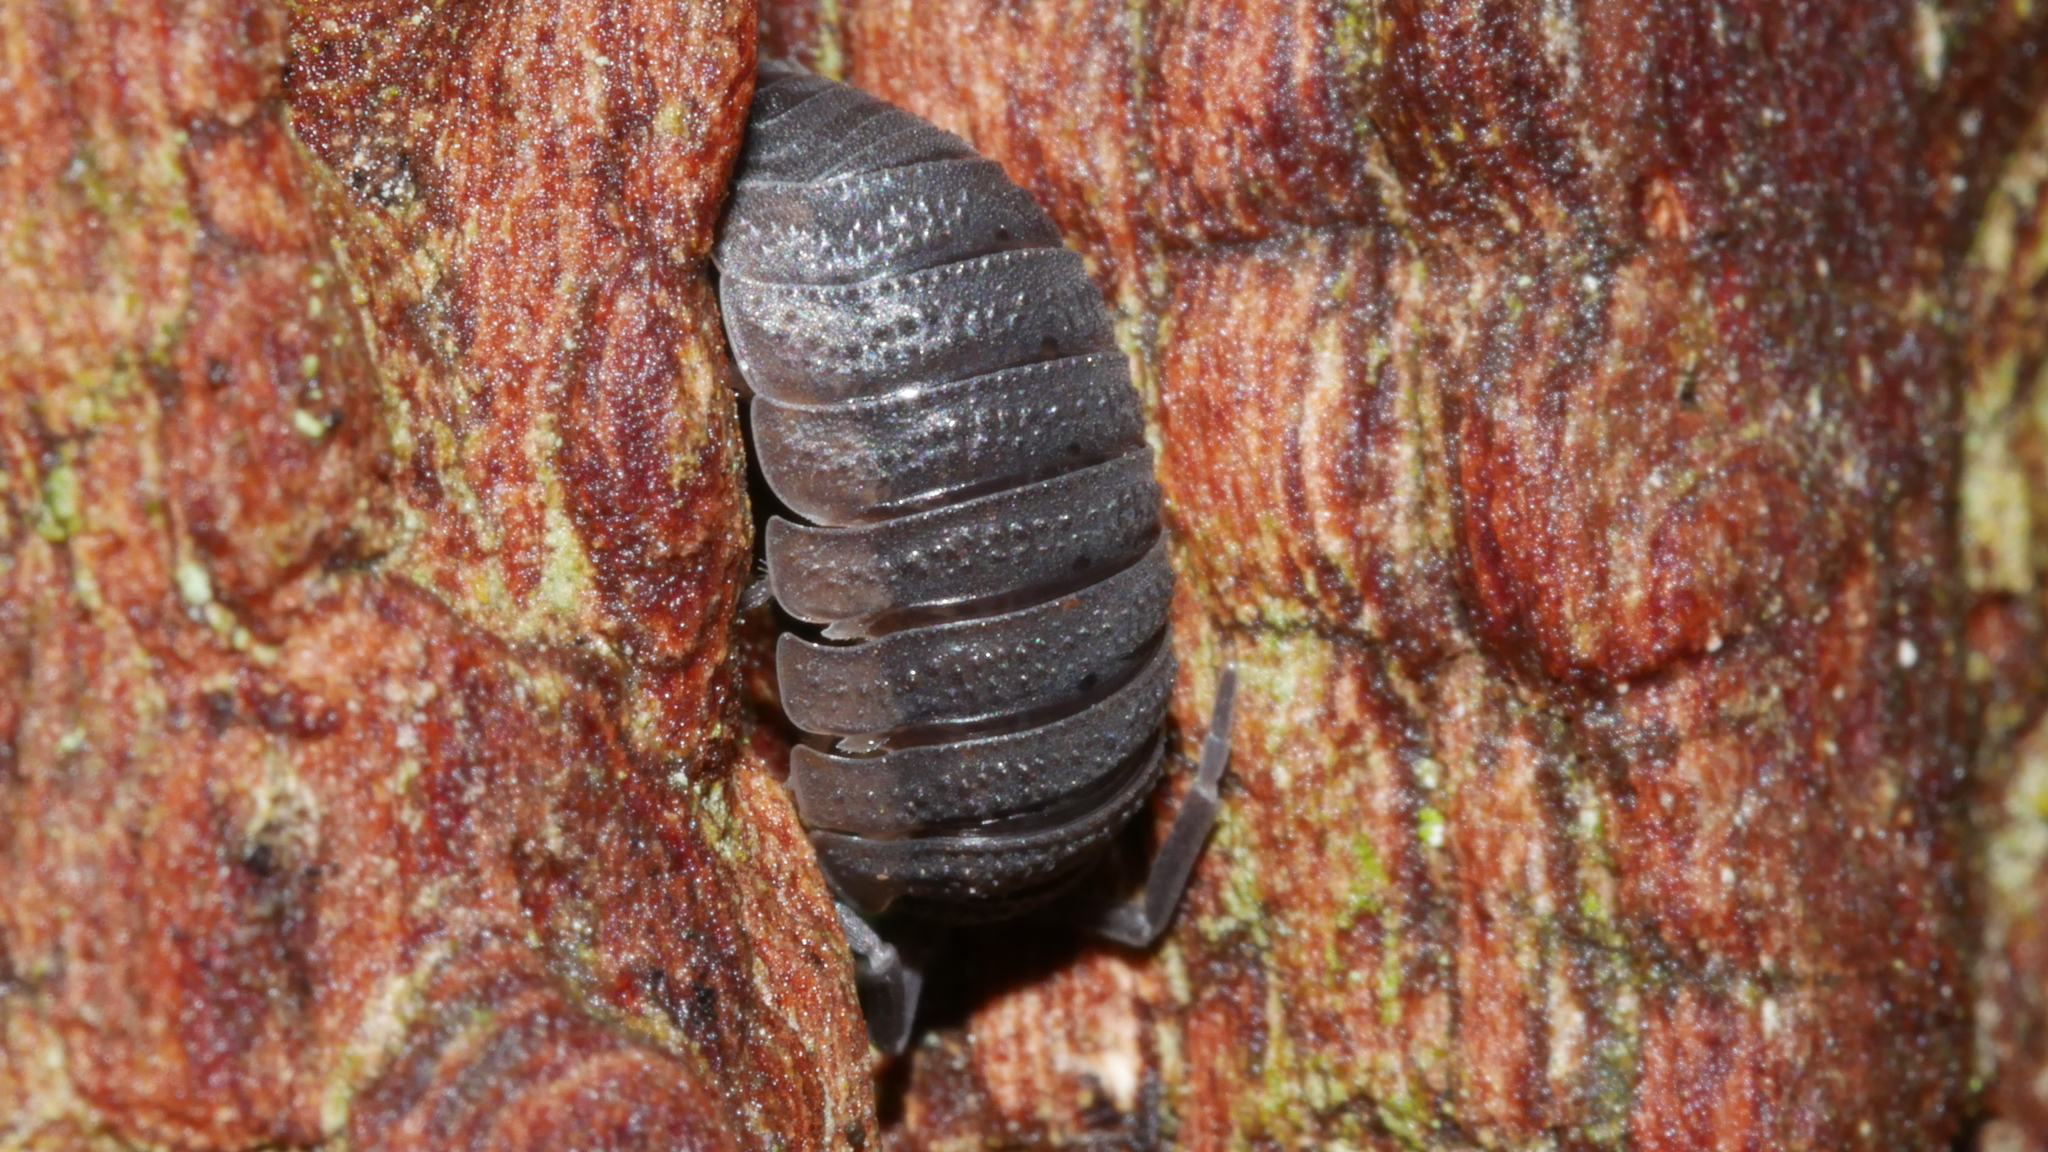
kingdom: Animalia
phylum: Arthropoda
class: Malacostraca
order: Isopoda
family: Porcellionidae
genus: Porcellio
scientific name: Porcellio scaber
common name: Common rough woodlouse
